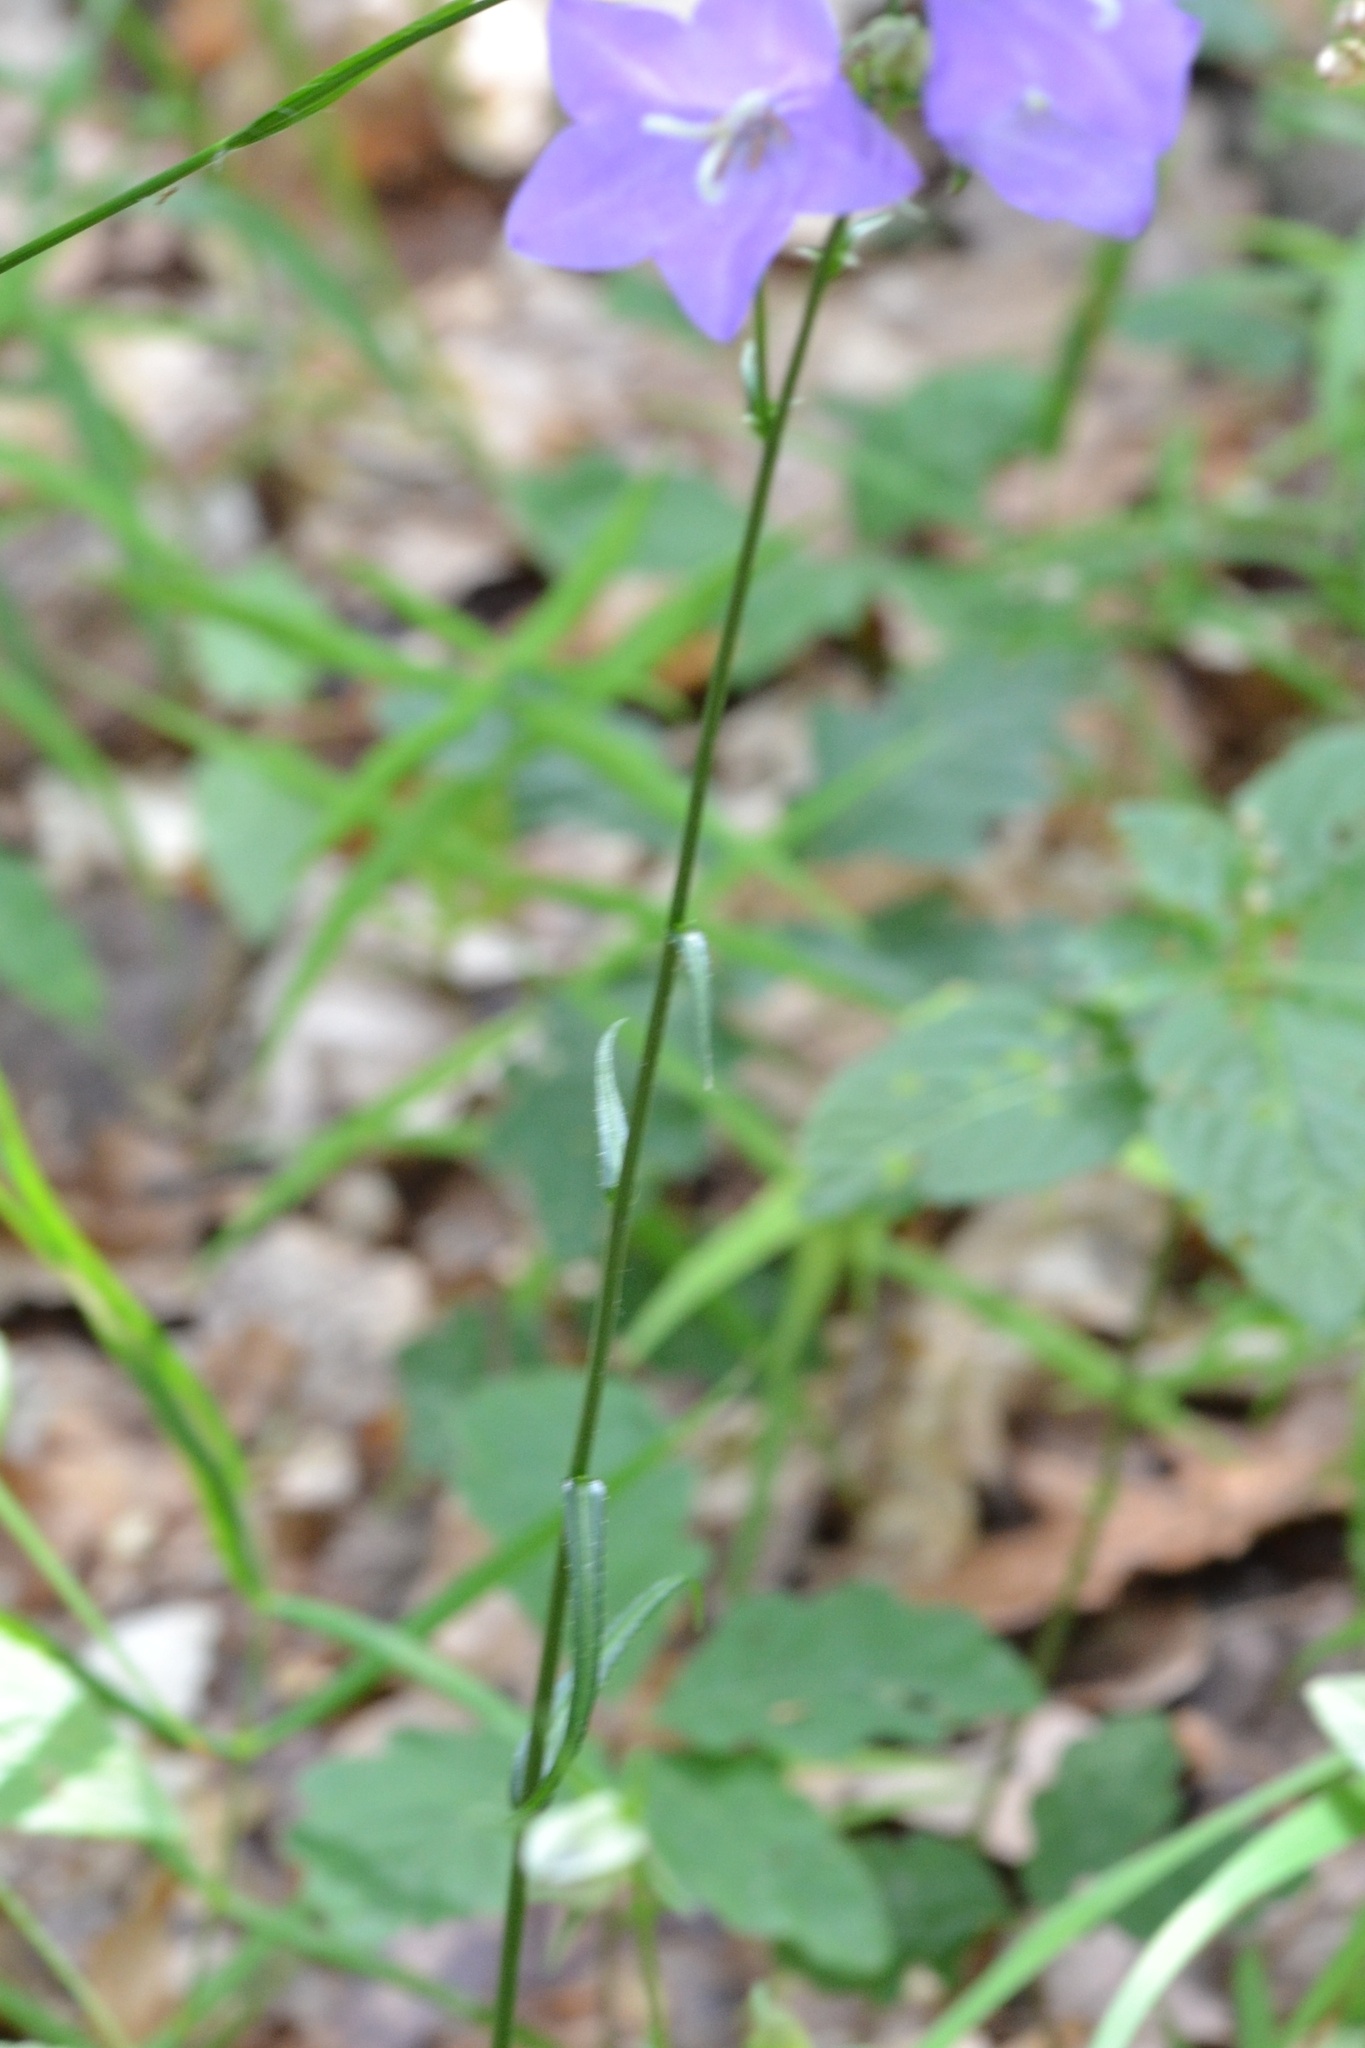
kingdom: Plantae
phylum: Tracheophyta
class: Magnoliopsida
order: Asterales
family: Campanulaceae
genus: Campanula
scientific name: Campanula persicifolia
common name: Peach-leaved bellflower
